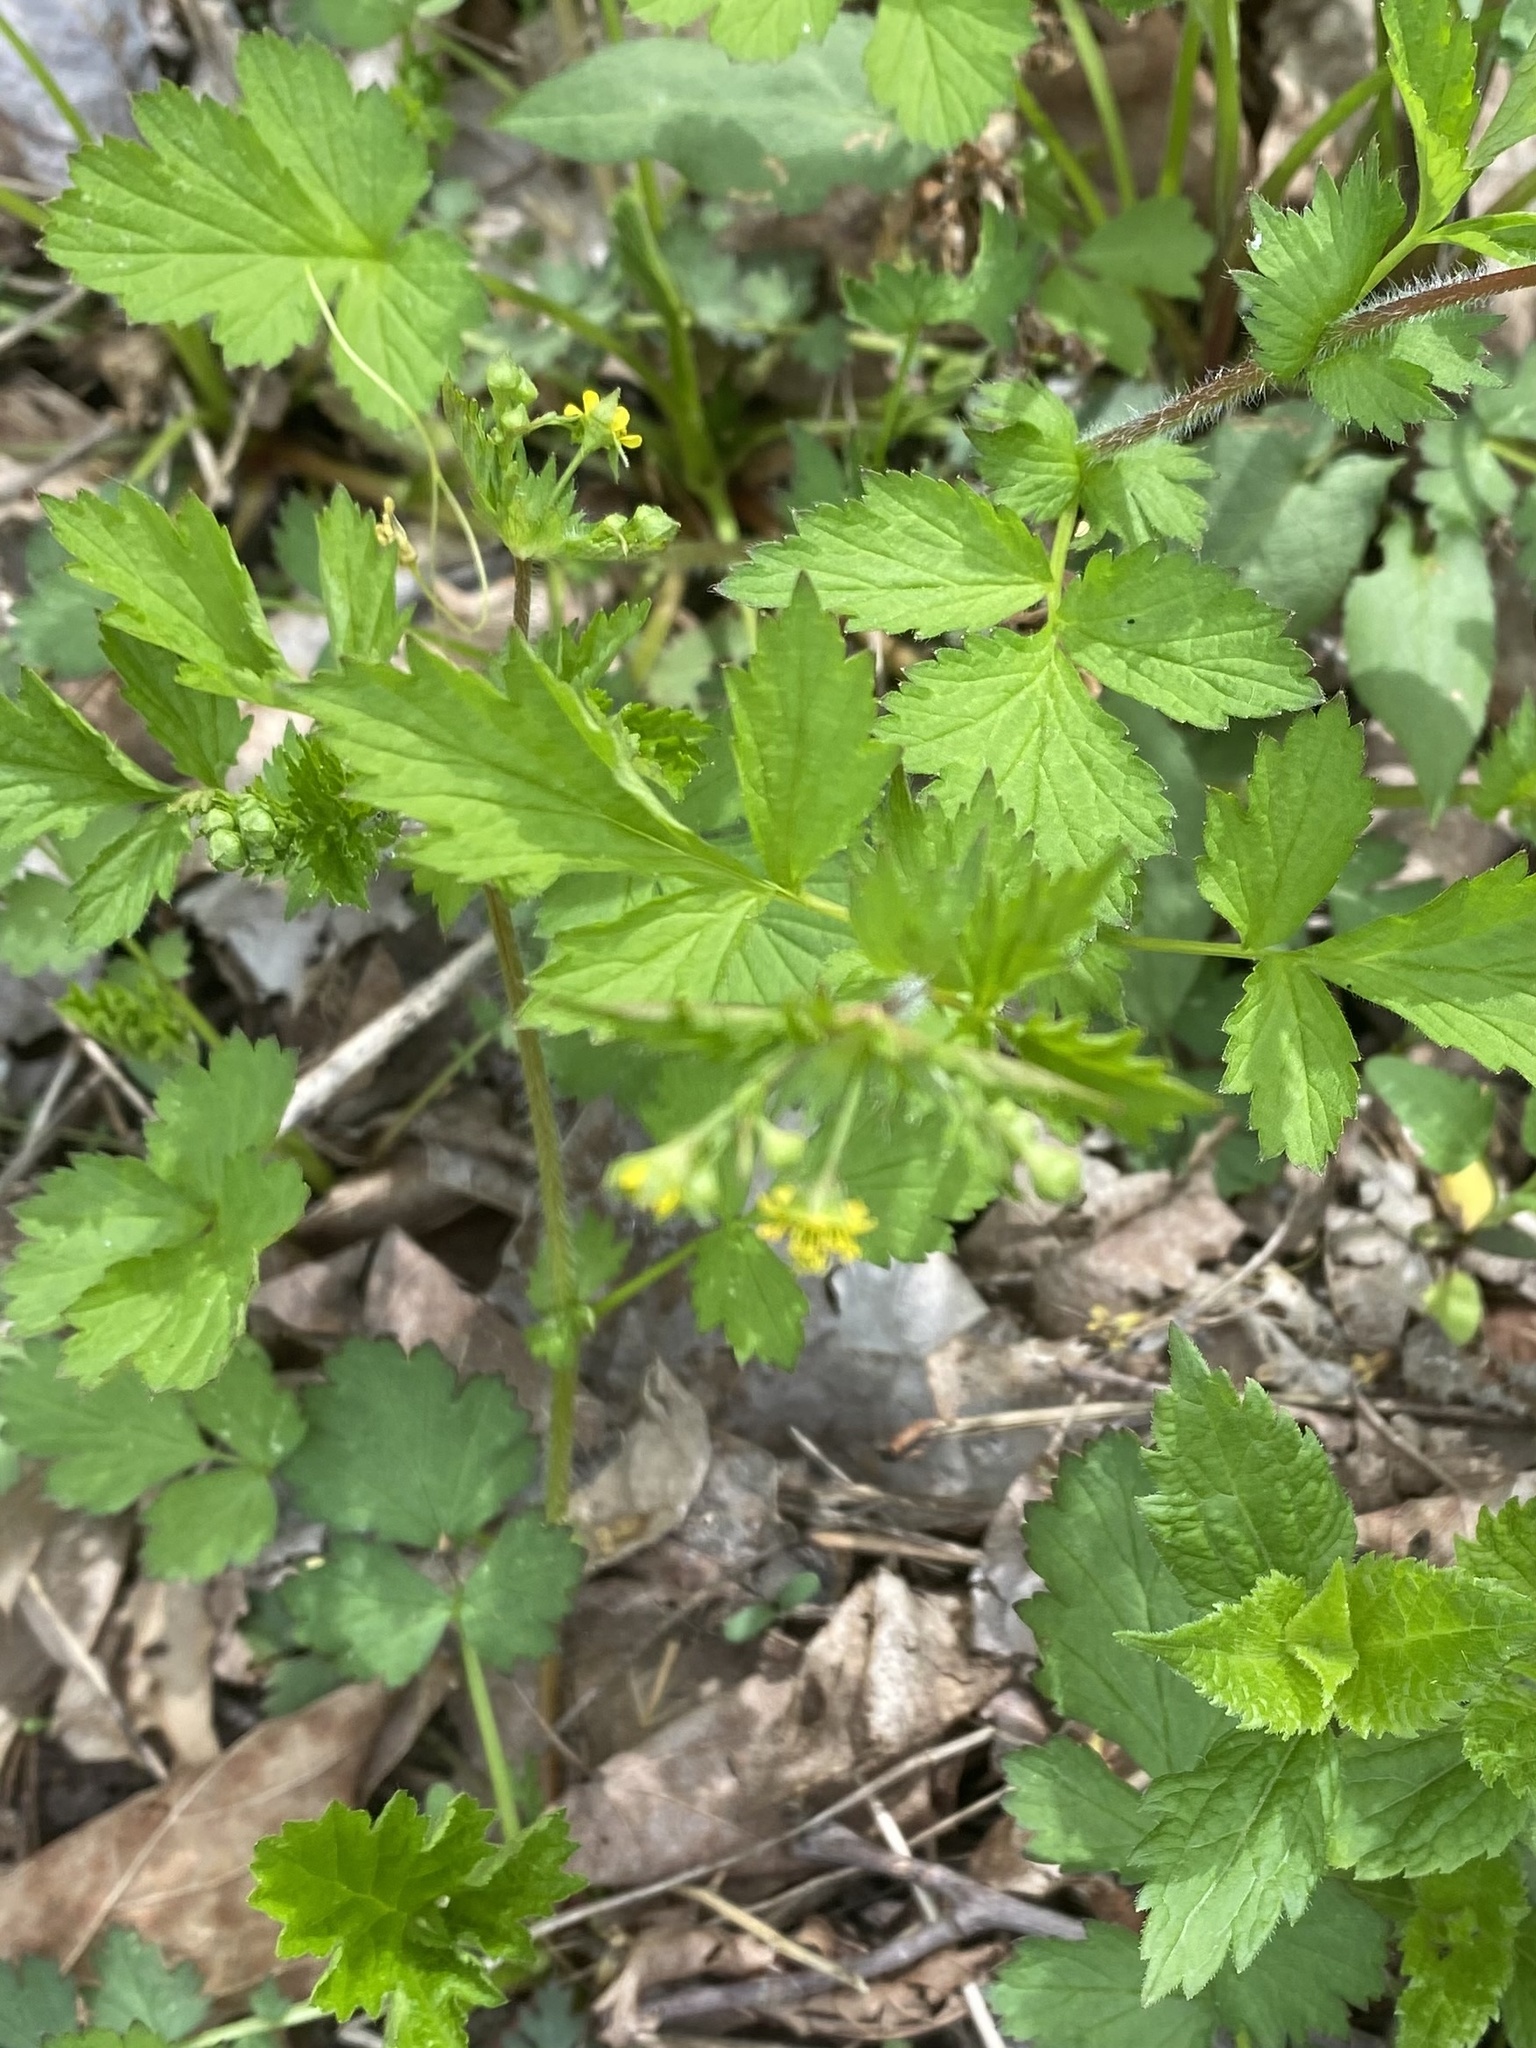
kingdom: Plantae
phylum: Tracheophyta
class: Magnoliopsida
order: Rosales
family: Rosaceae
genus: Geum
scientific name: Geum vernum
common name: Spring avens
